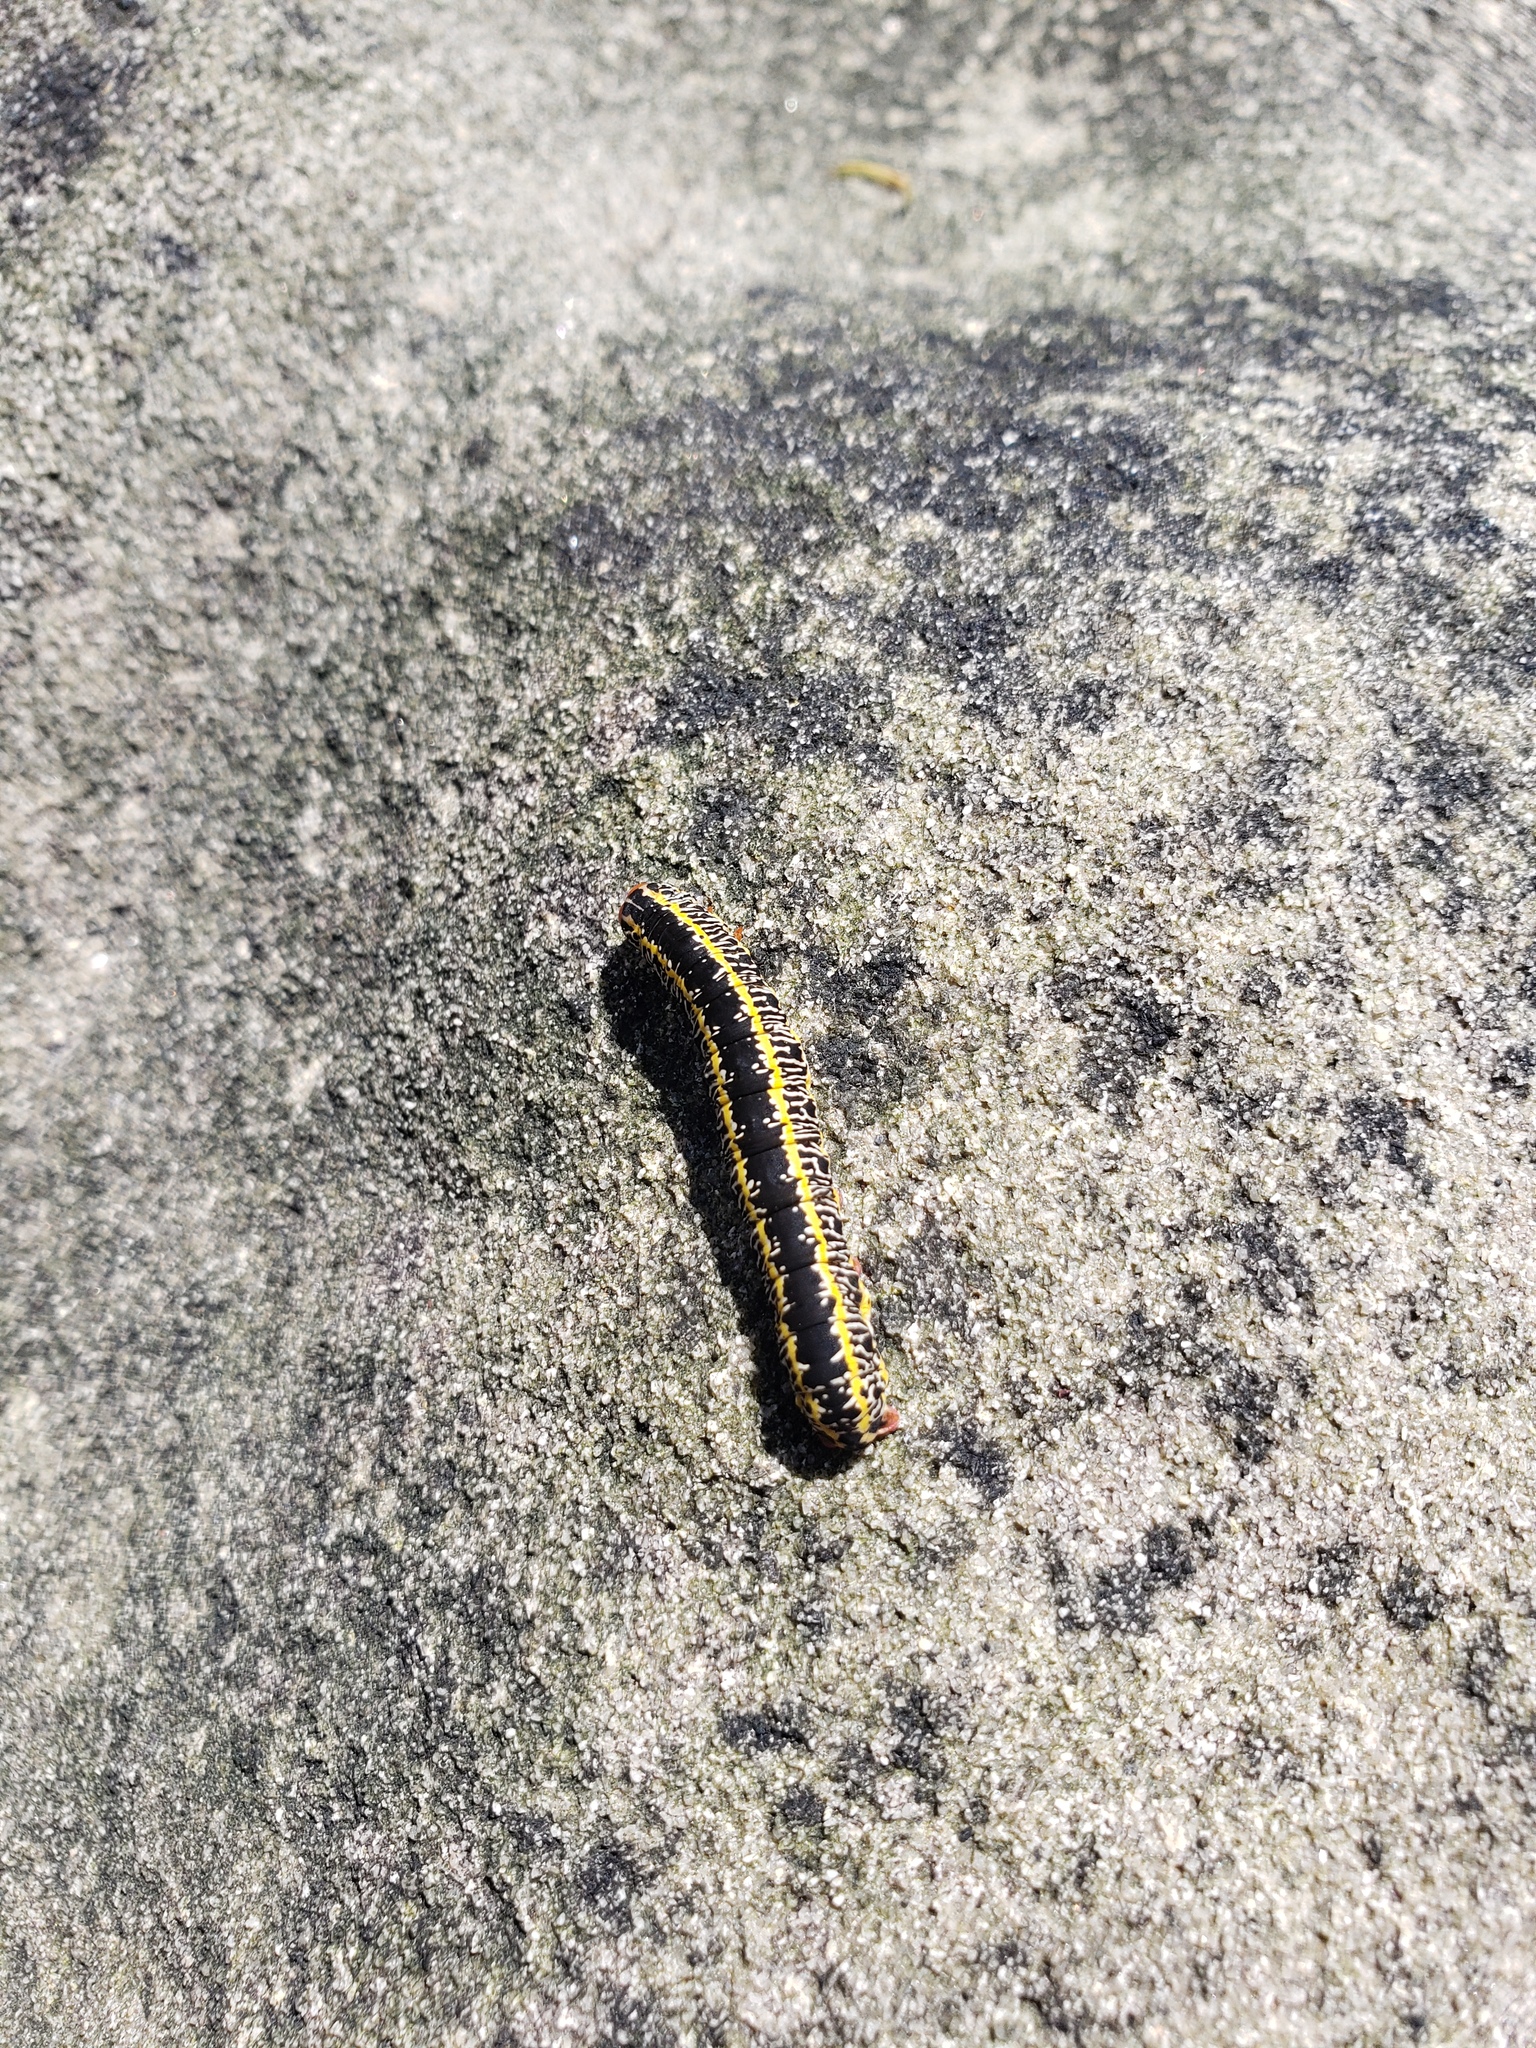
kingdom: Animalia
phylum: Arthropoda
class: Insecta
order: Lepidoptera
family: Noctuidae
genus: Melanchra
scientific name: Melanchra picta
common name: Zebra caterpillar
